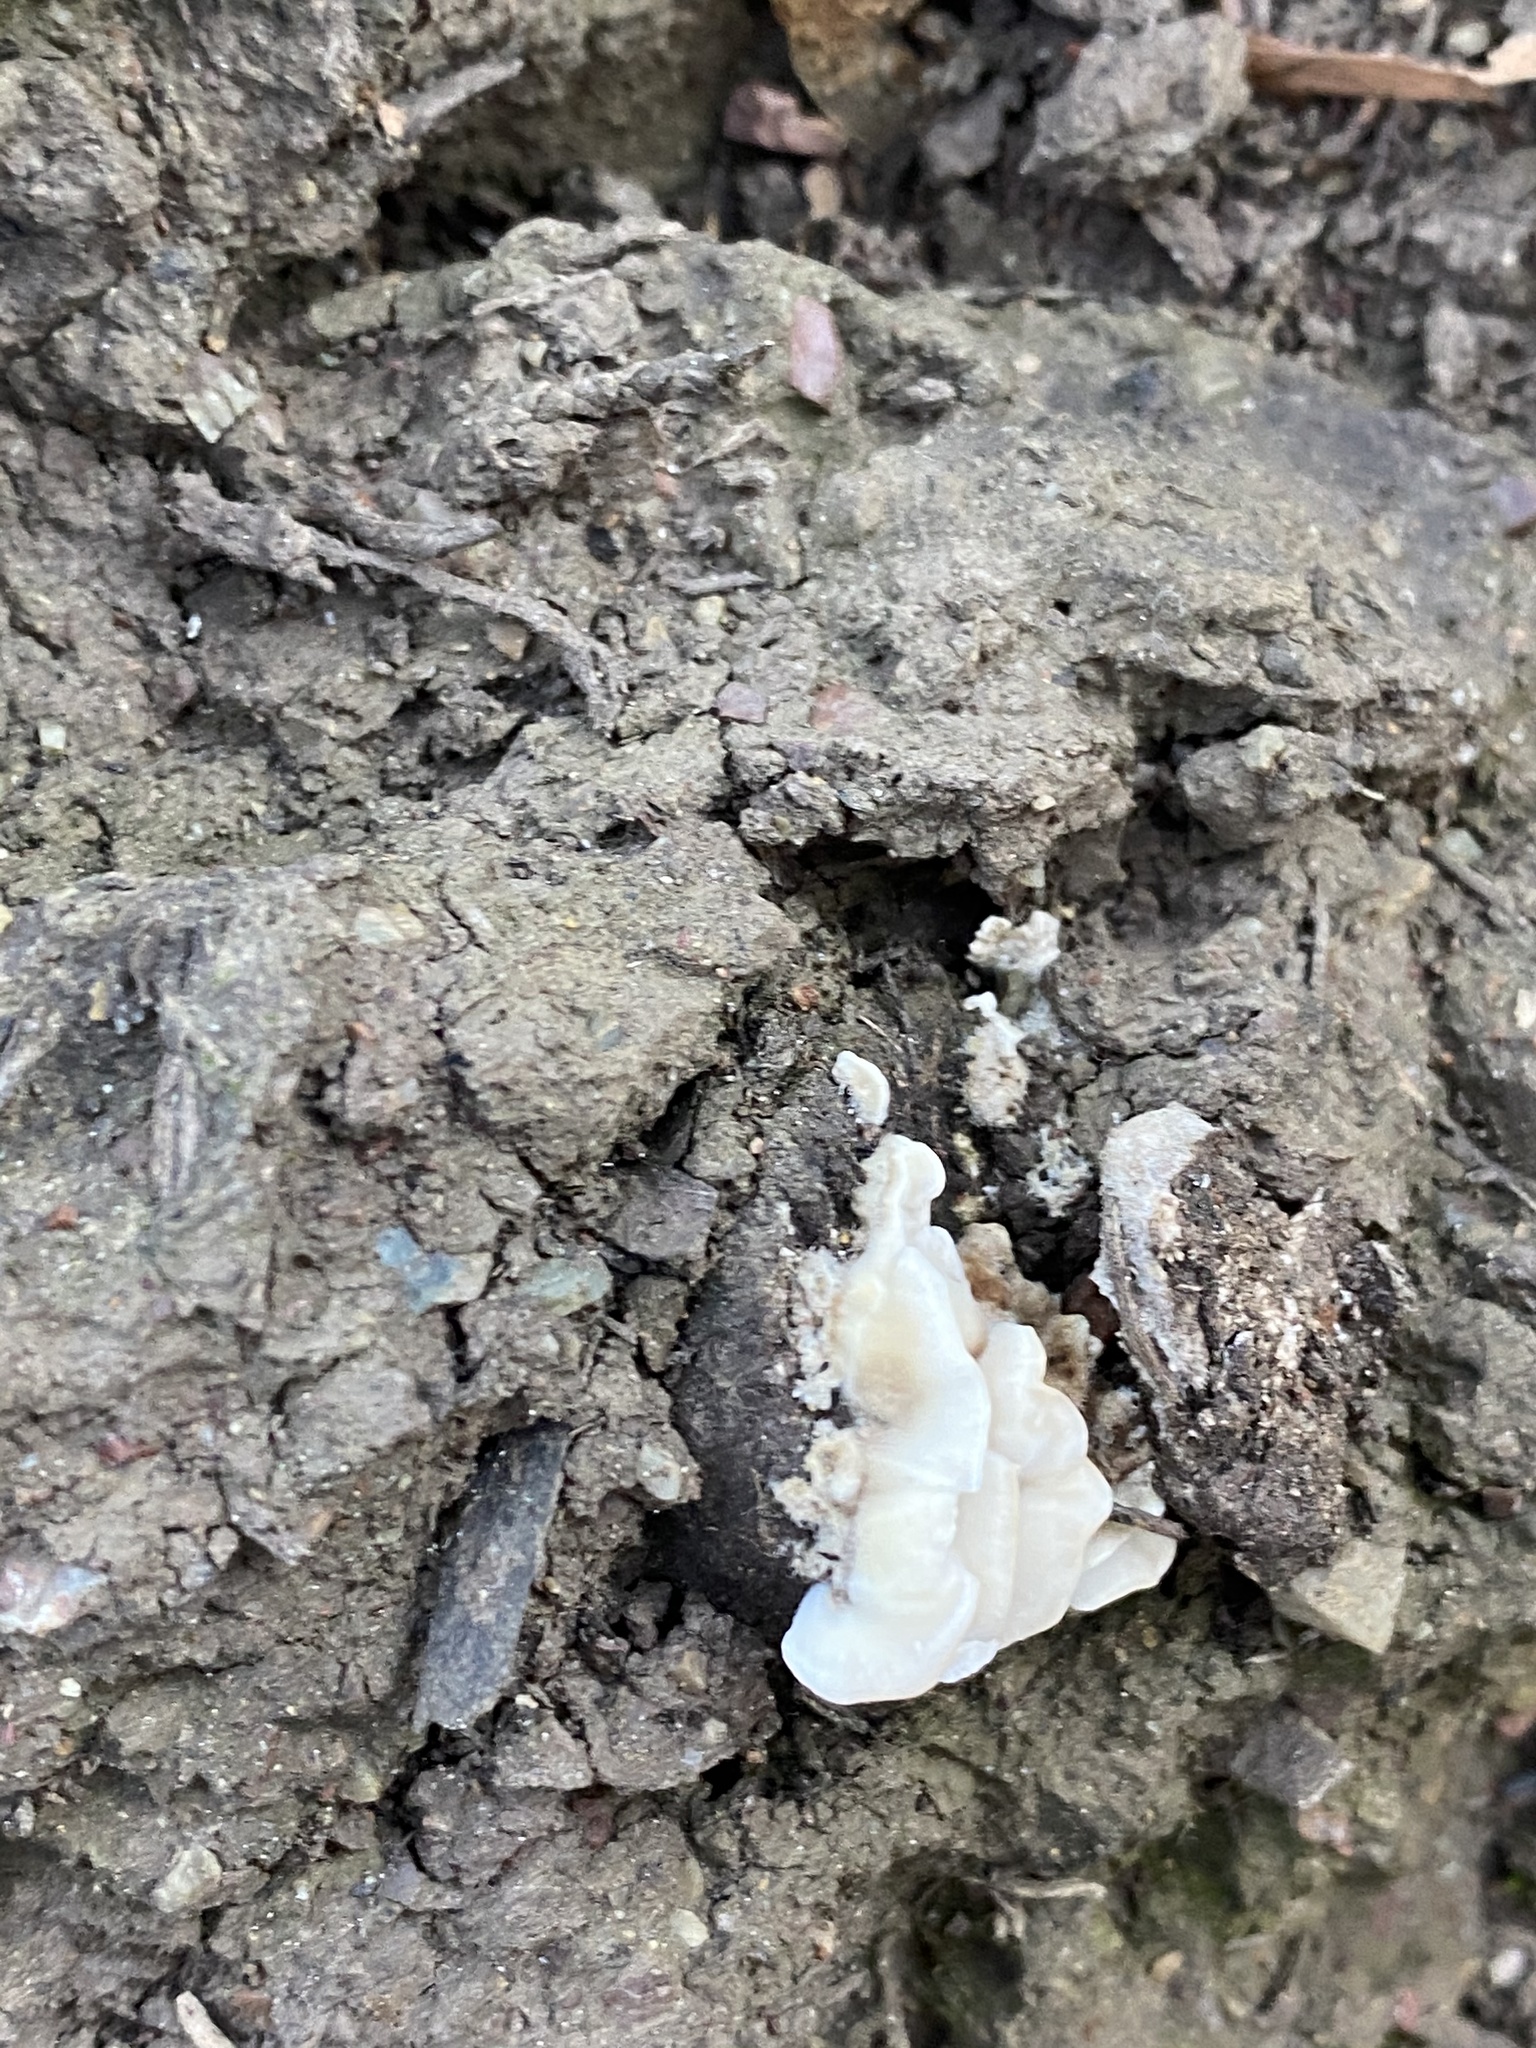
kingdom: Fungi
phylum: Basidiomycota
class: Agaricomycetes
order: Polyporales
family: Laetiporaceae
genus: Laetiporus
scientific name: Laetiporus gilbertsonii
